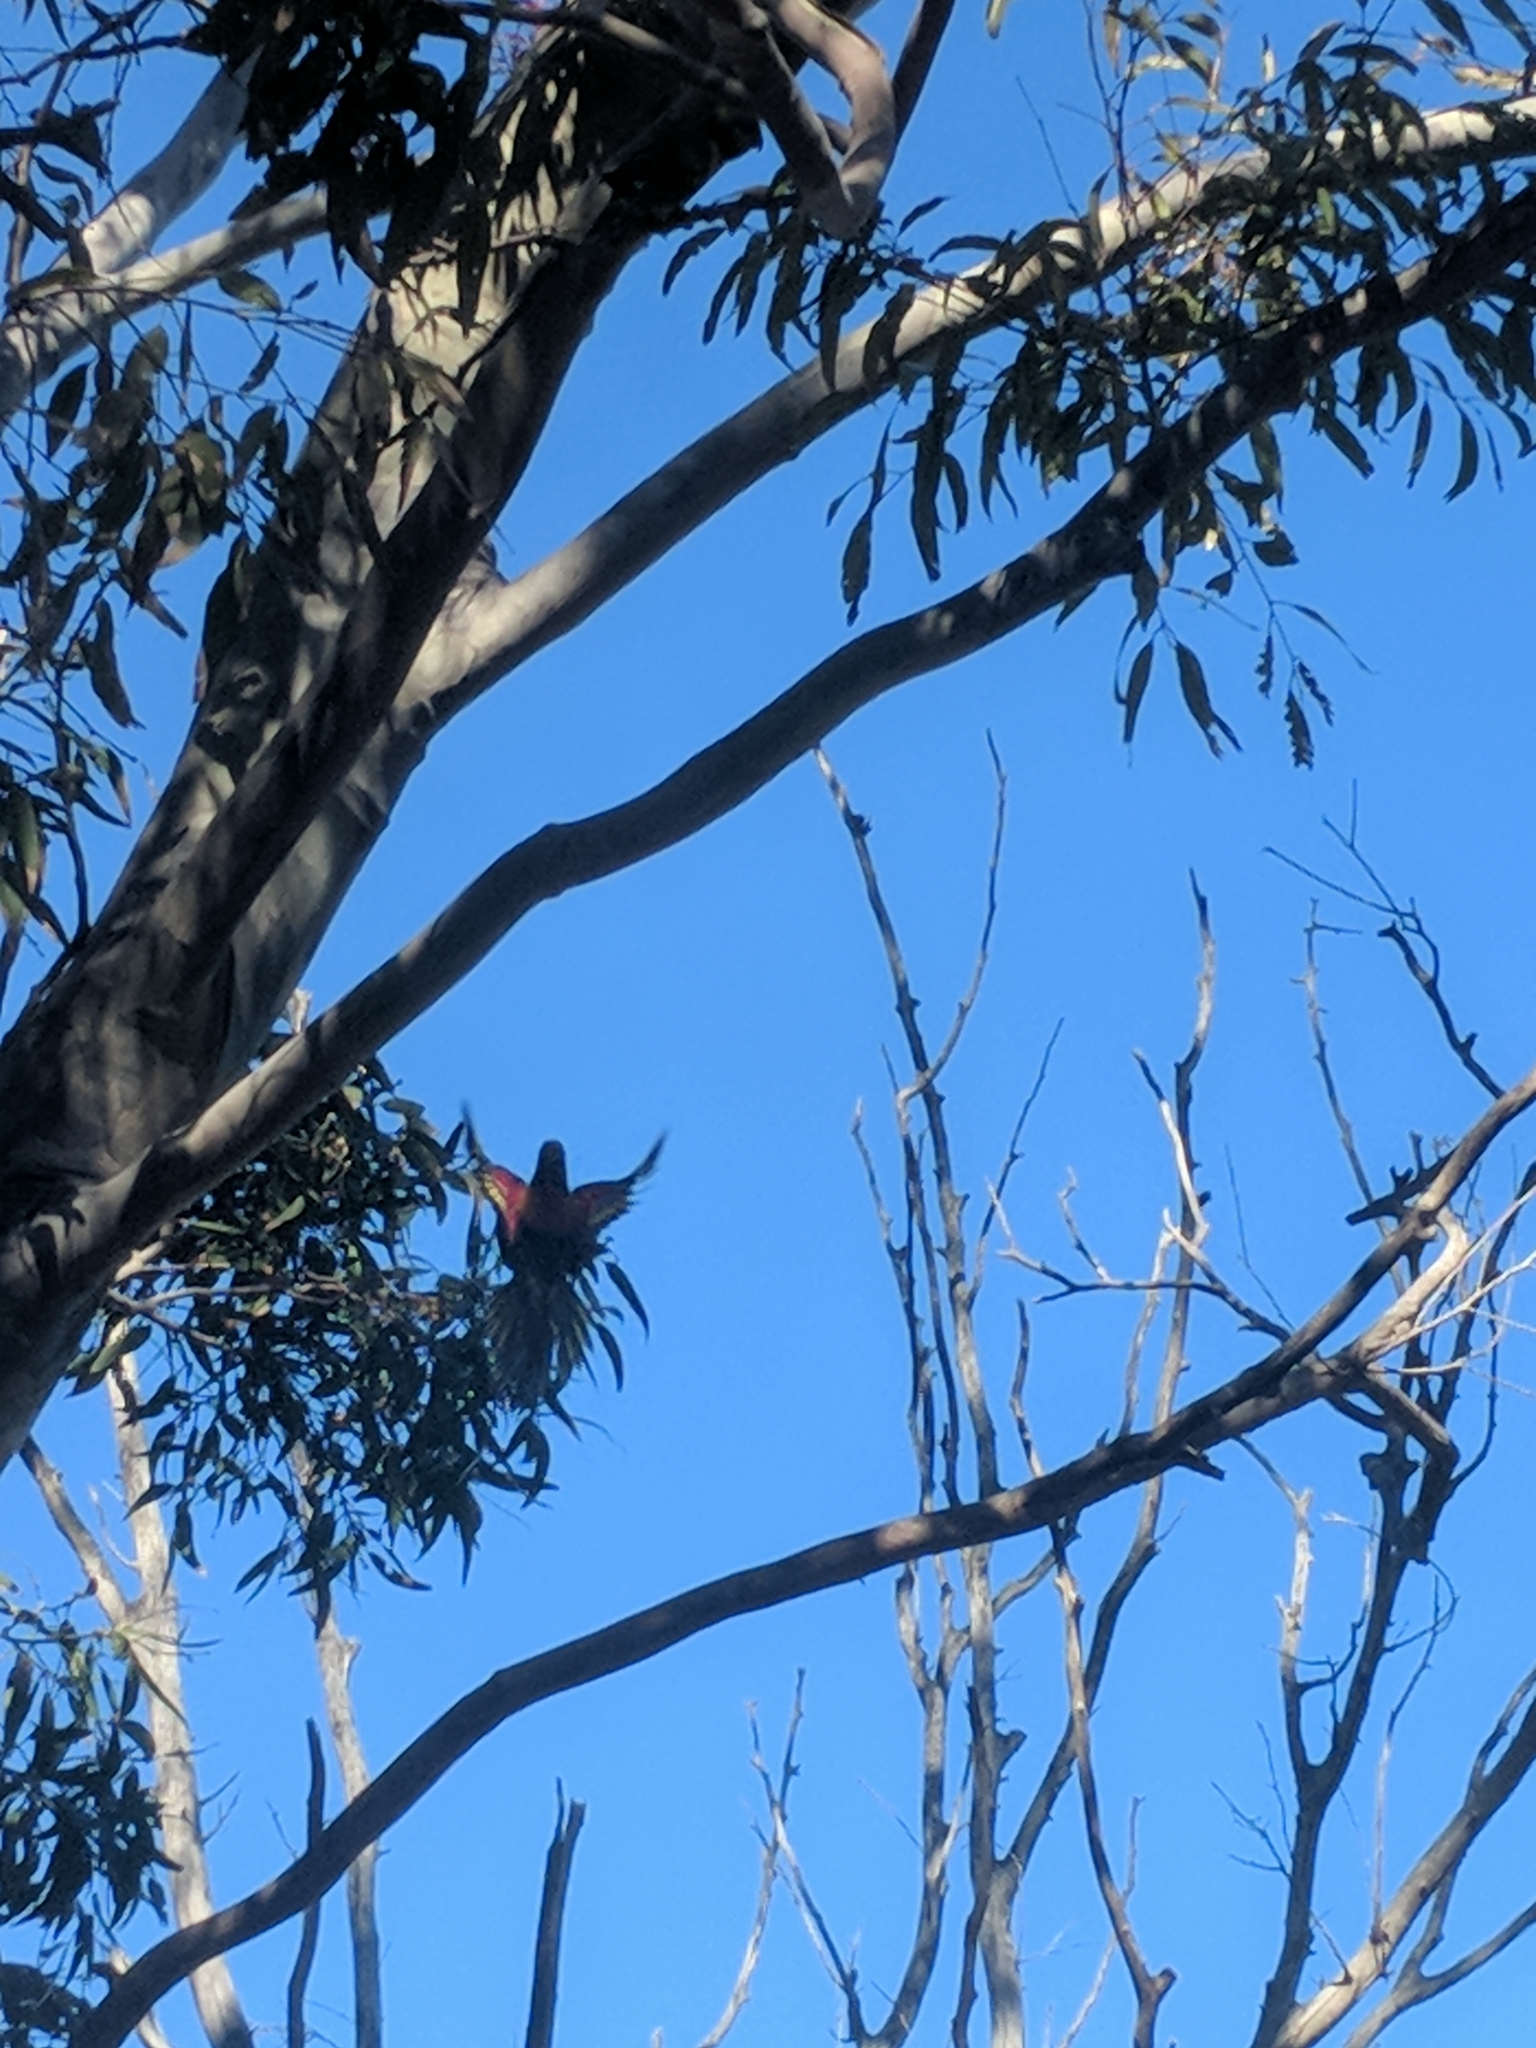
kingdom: Animalia
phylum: Chordata
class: Aves
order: Psittaciformes
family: Psittacidae
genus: Trichoglossus
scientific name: Trichoglossus haematodus
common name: Coconut lorikeet
